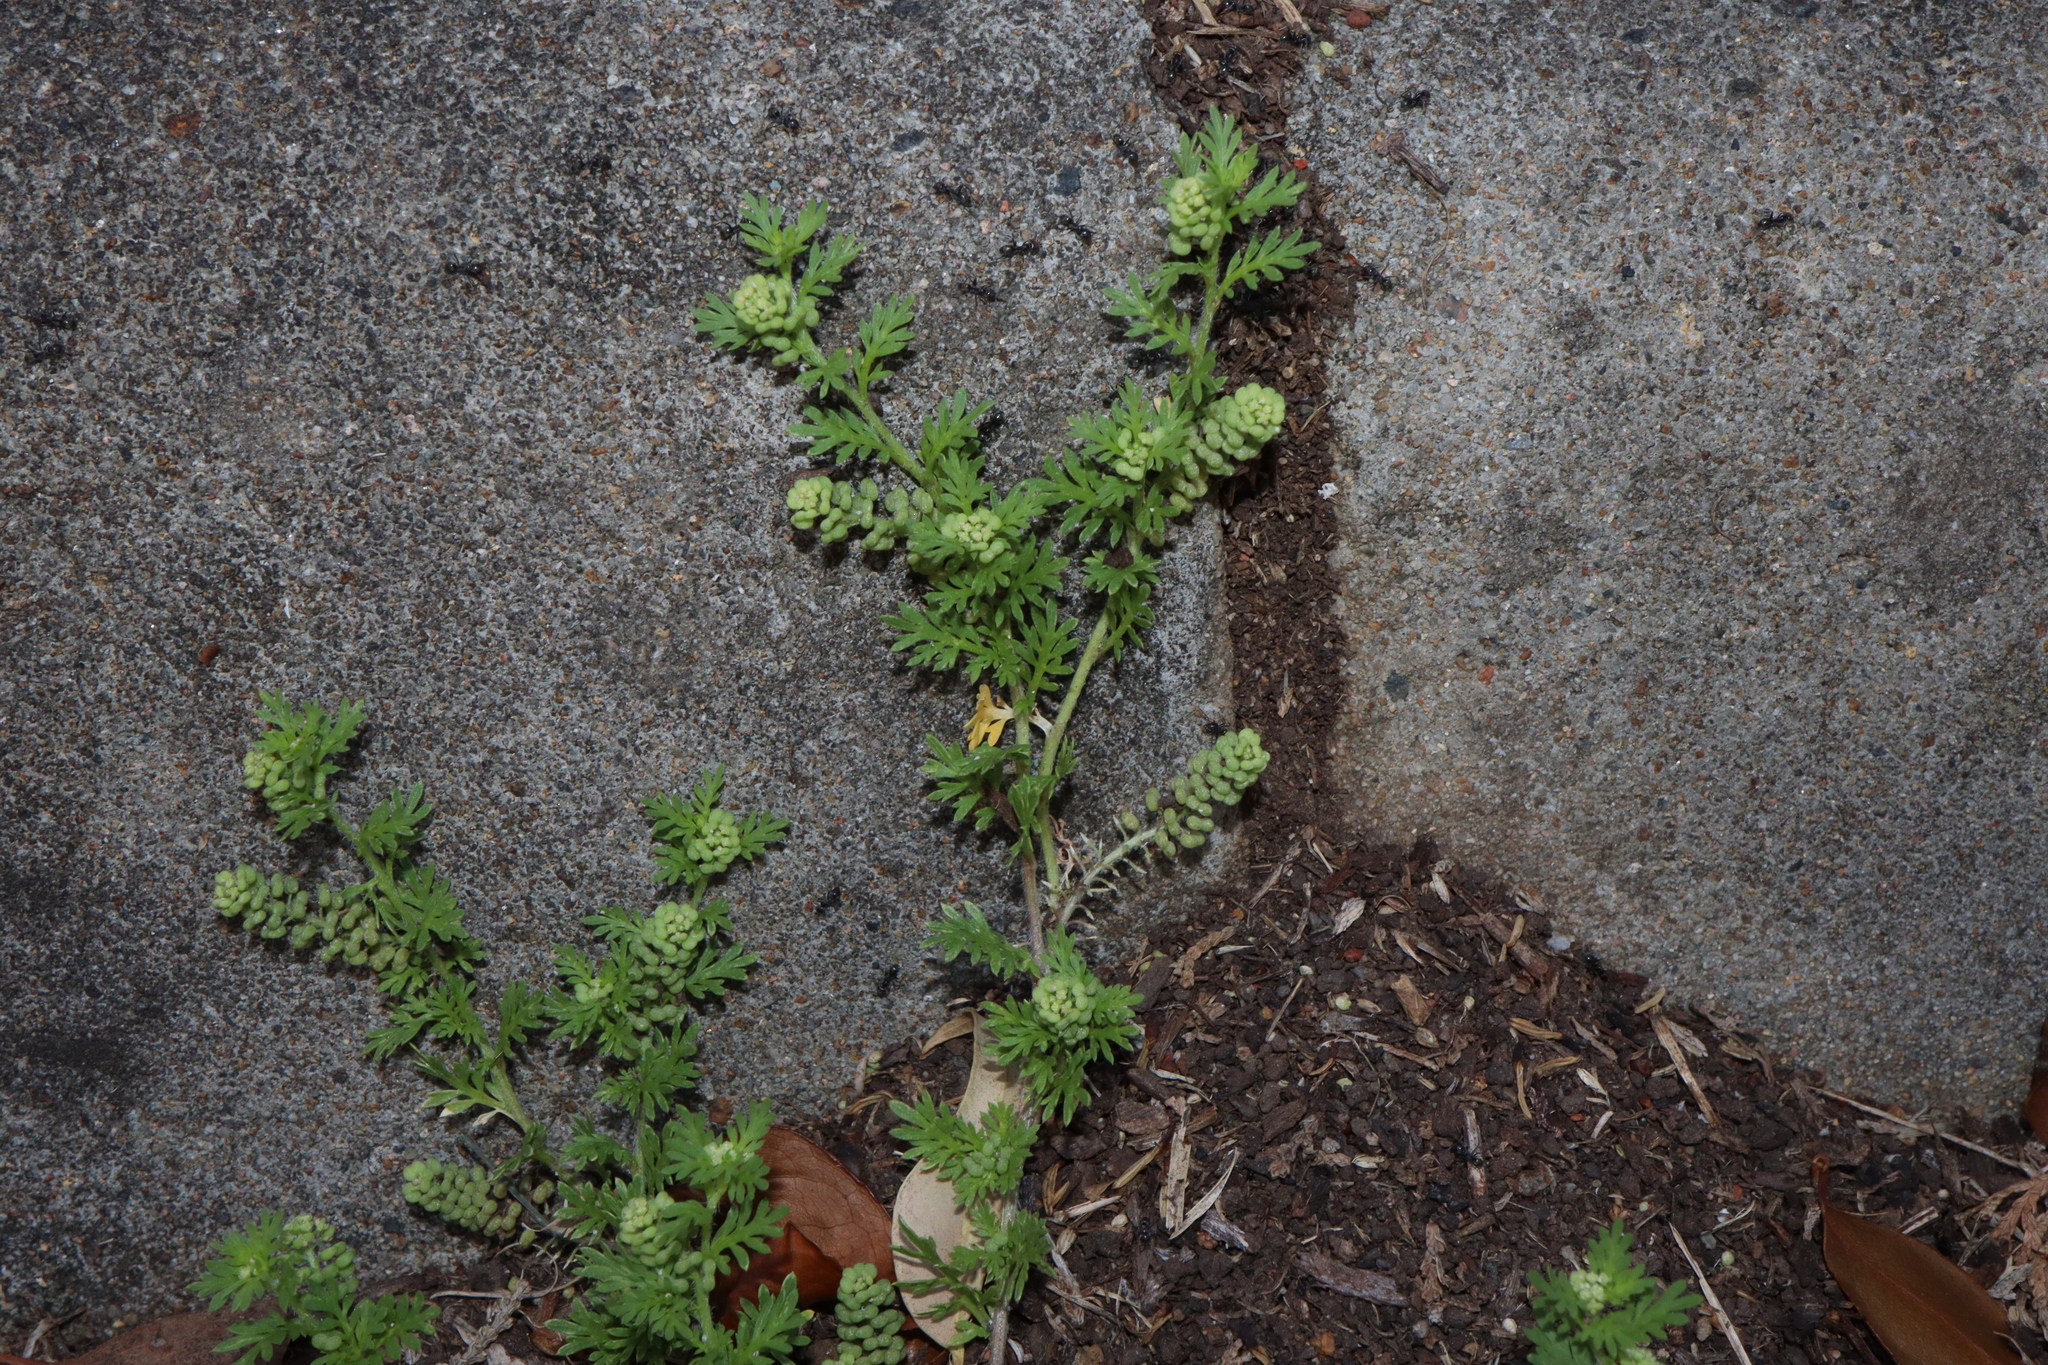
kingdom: Plantae
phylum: Tracheophyta
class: Magnoliopsida
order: Brassicales
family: Brassicaceae
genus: Lepidium
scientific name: Lepidium didymum
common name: Lesser swinecress
